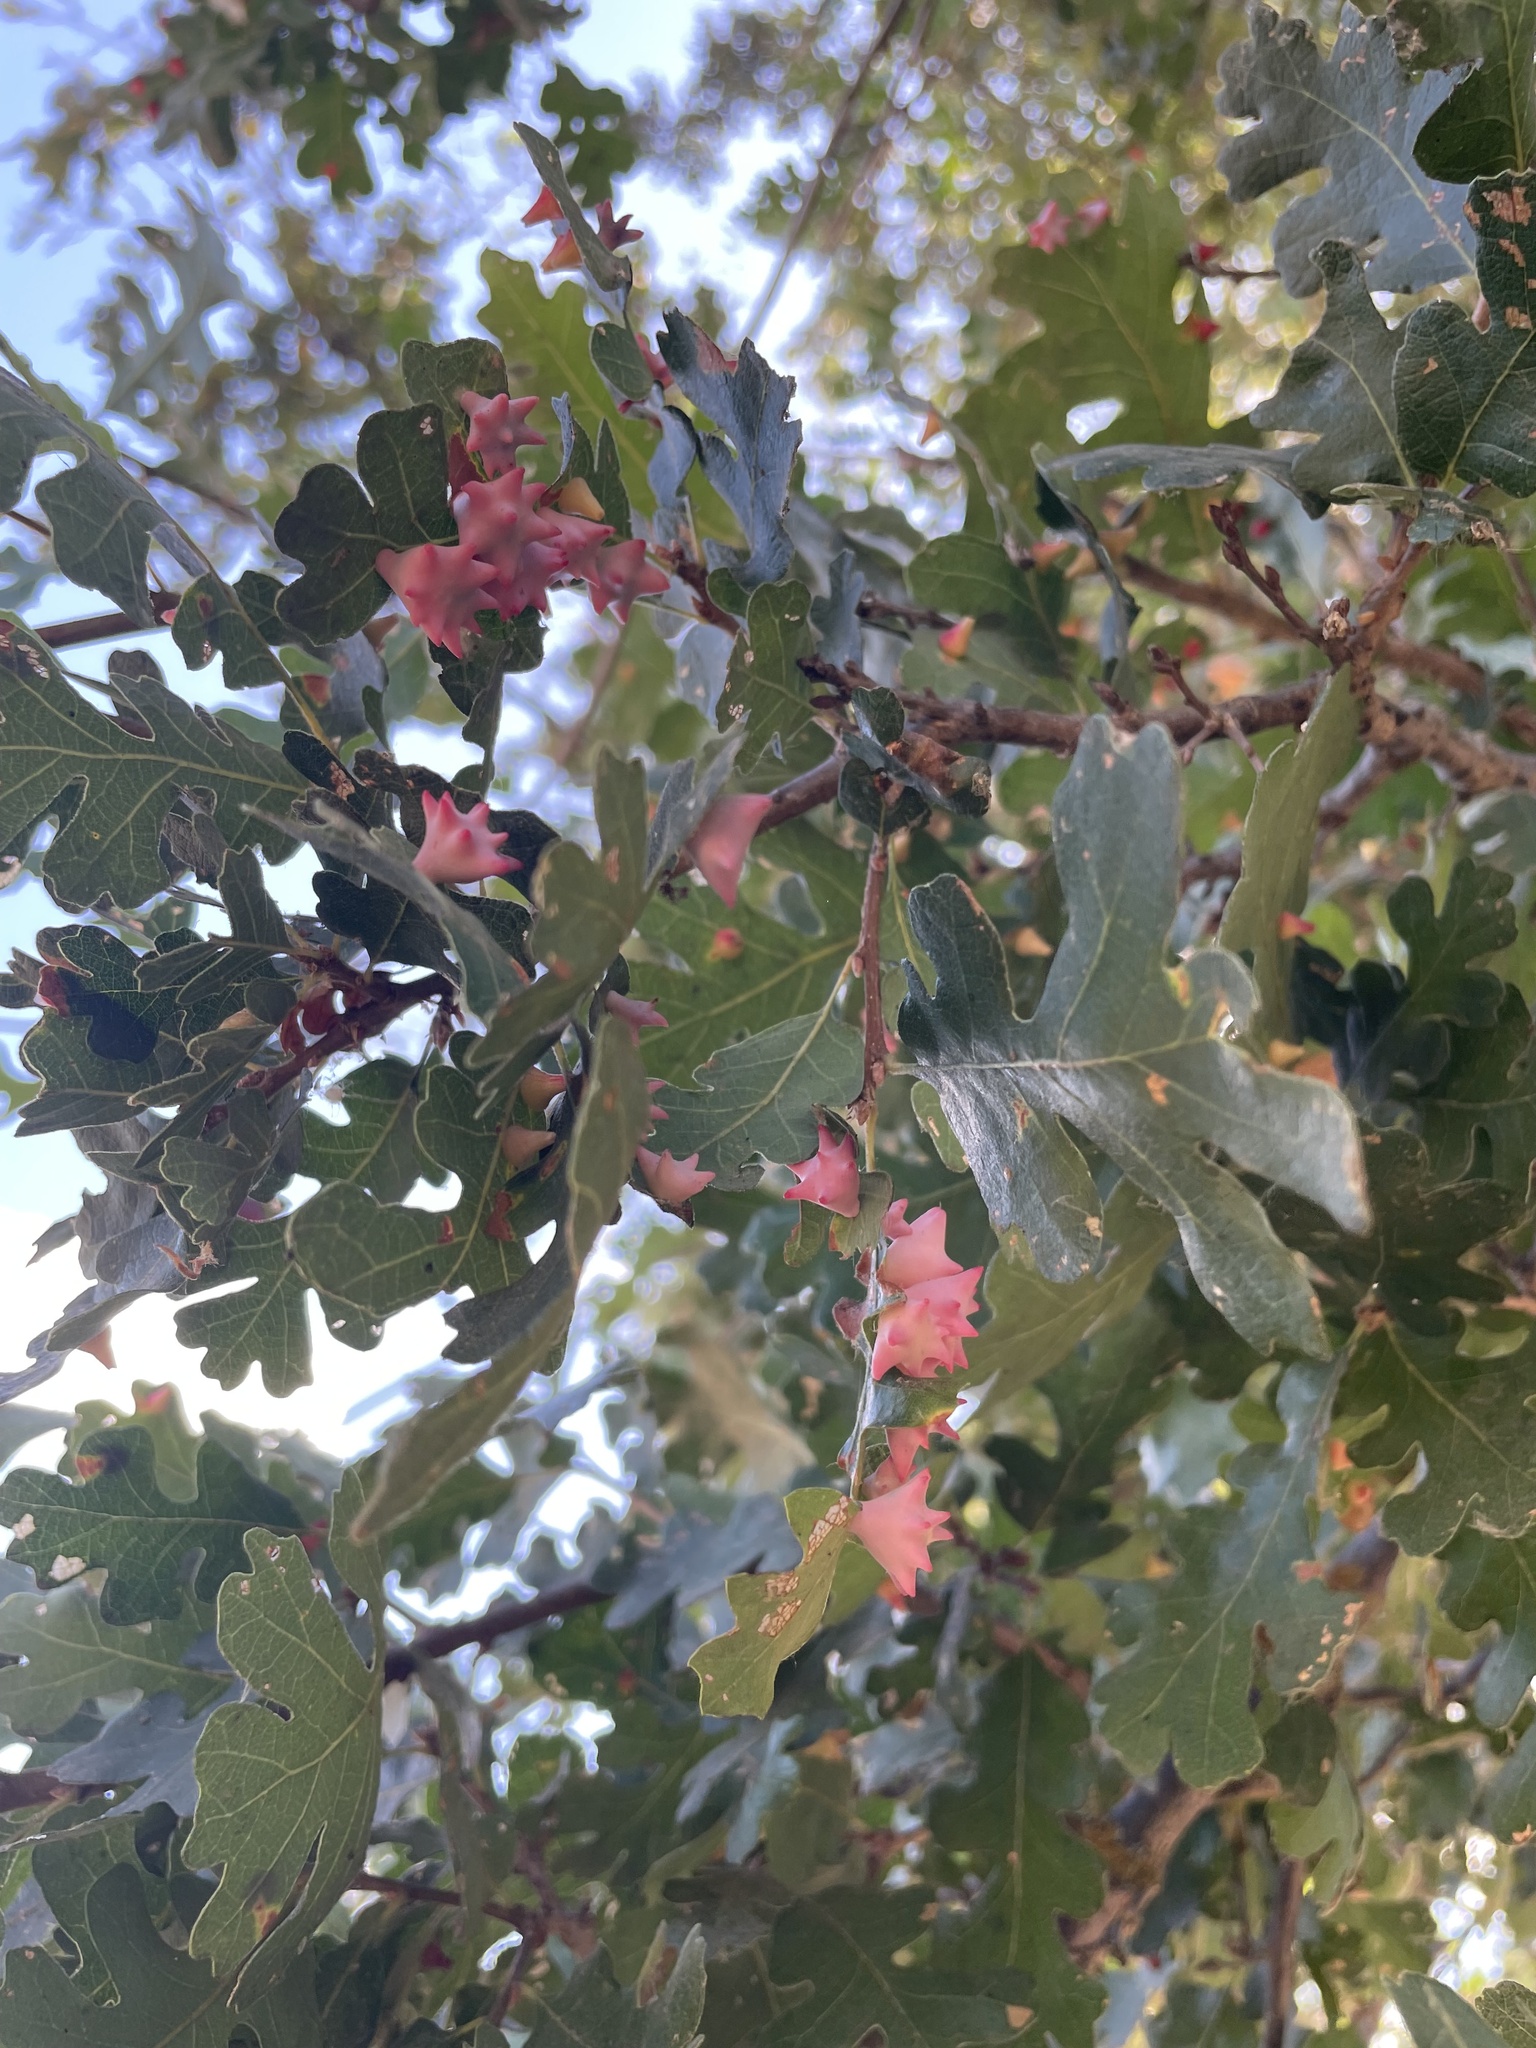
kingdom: Animalia
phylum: Arthropoda
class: Insecta
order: Hymenoptera
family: Cynipidae
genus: Cynips
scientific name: Cynips douglasi
